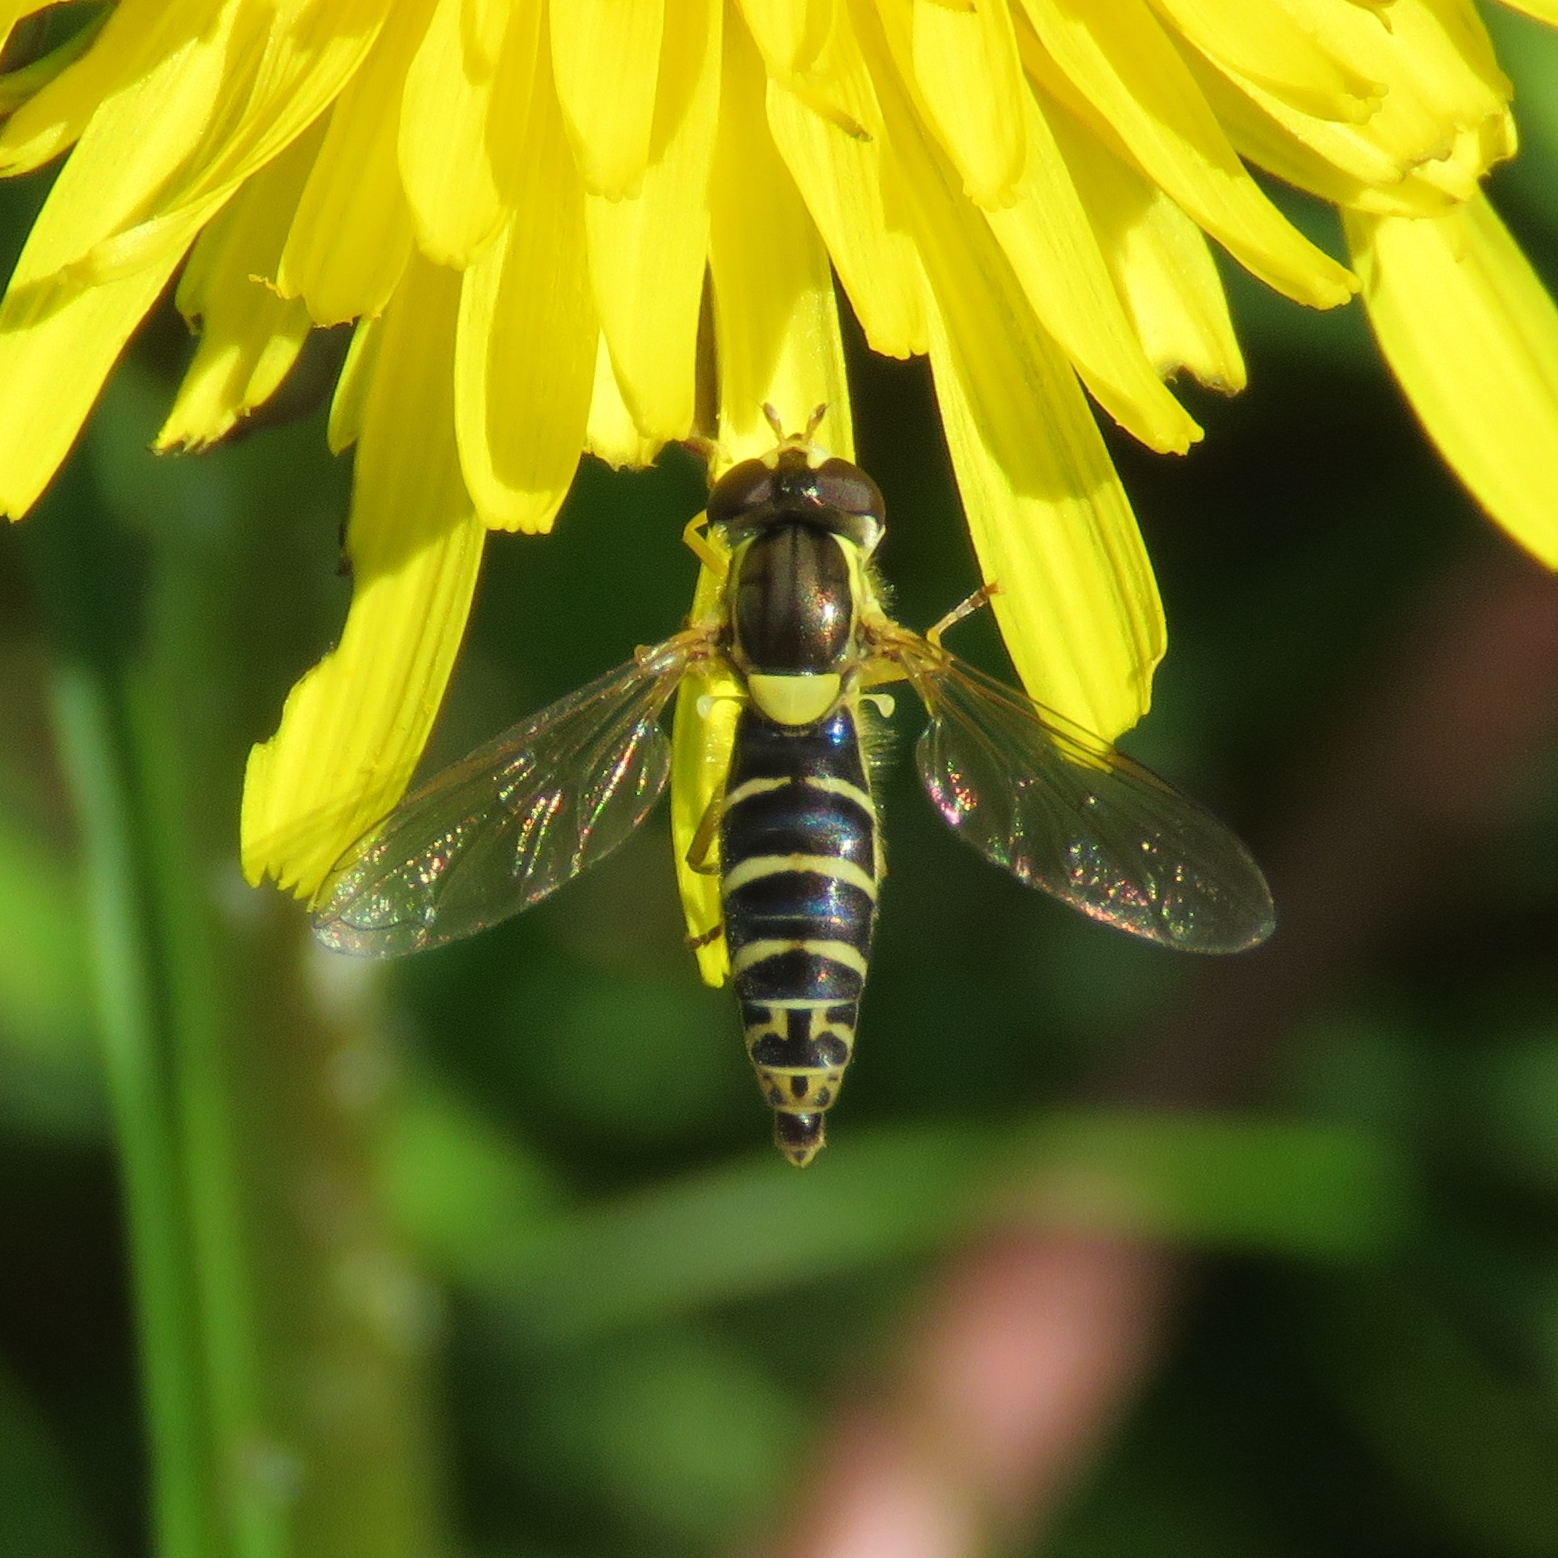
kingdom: Animalia
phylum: Arthropoda
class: Insecta
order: Diptera
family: Syrphidae
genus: Sphaerophoria
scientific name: Sphaerophoria
